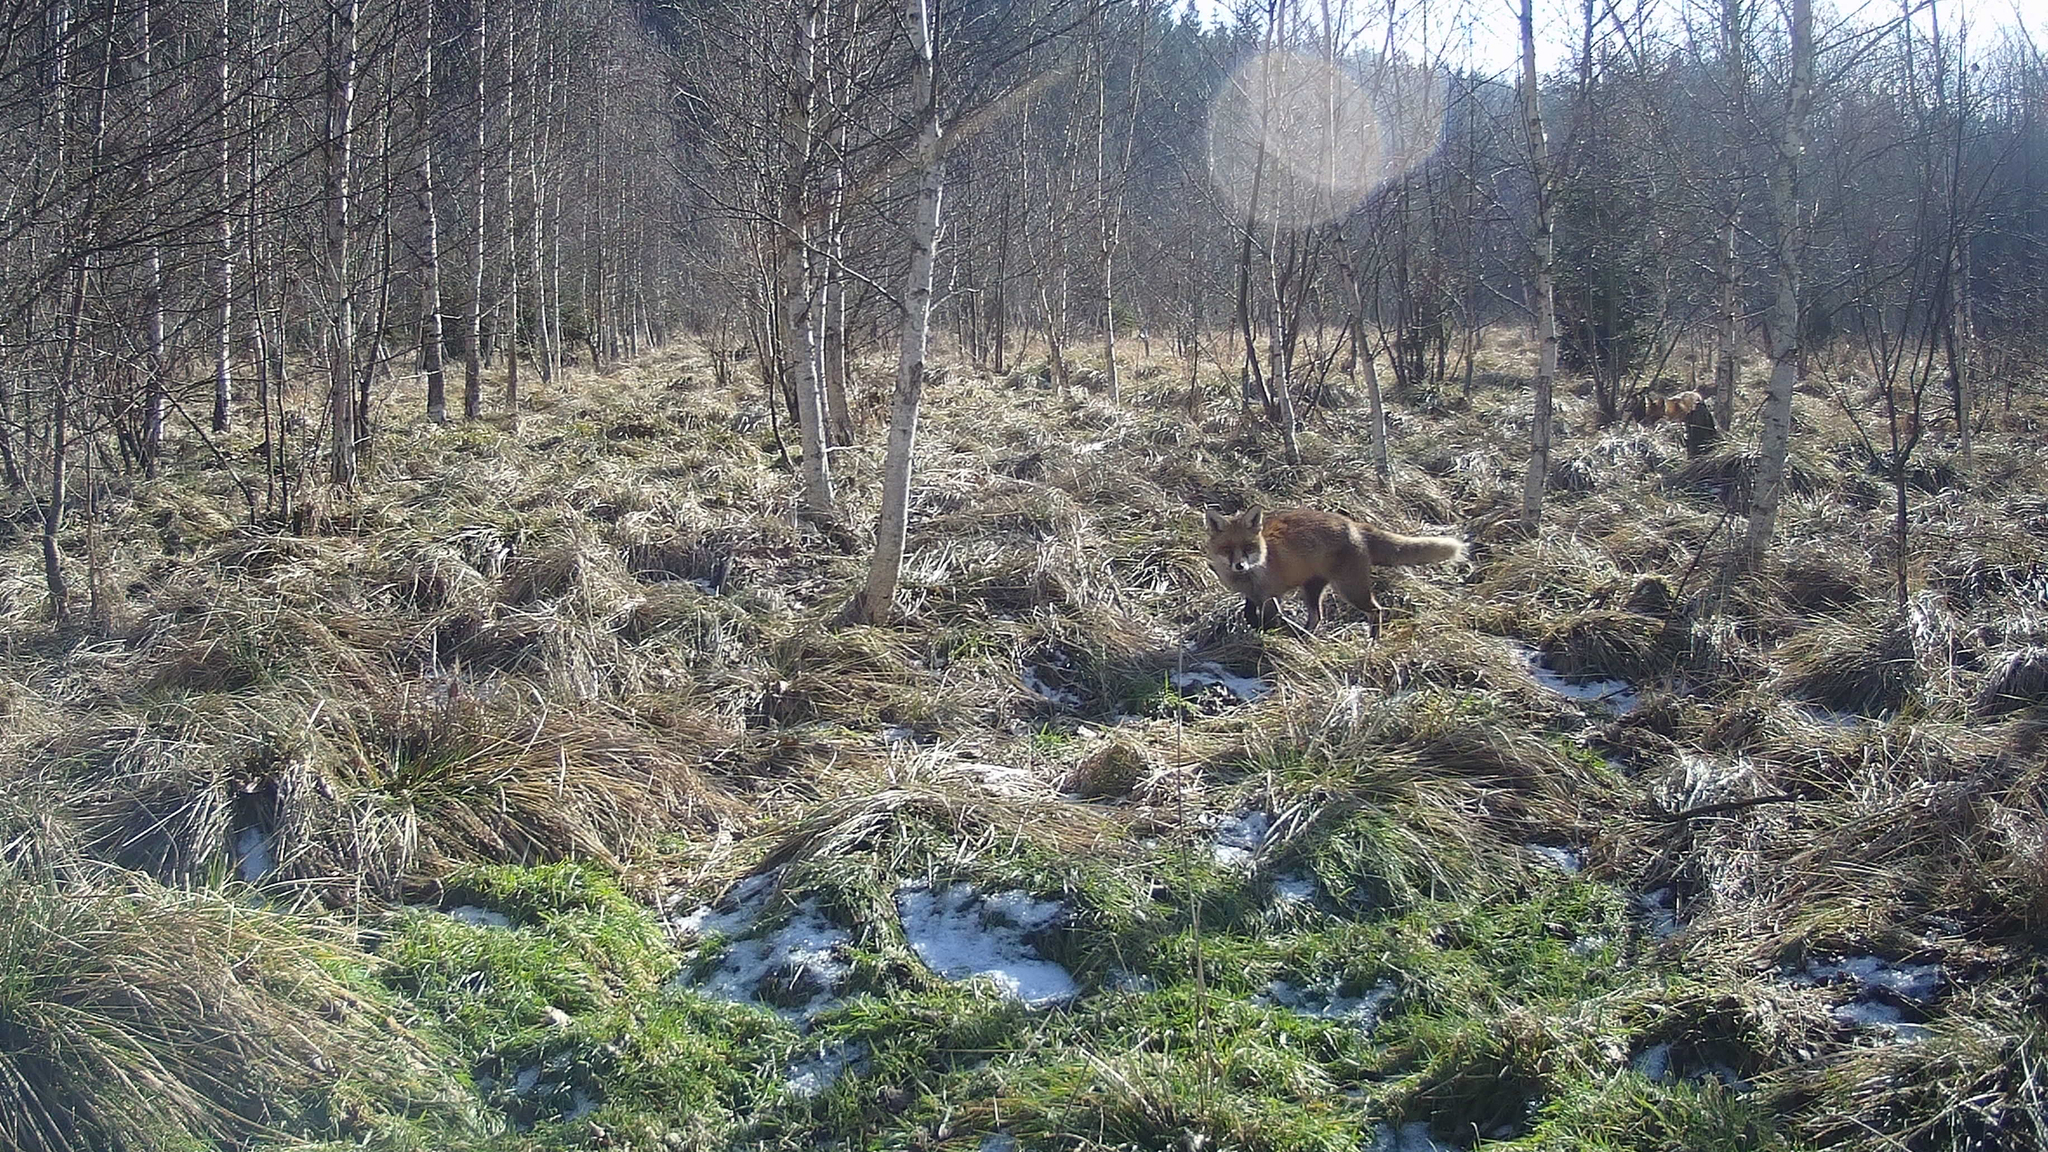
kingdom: Animalia
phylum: Chordata
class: Mammalia
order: Carnivora
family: Canidae
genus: Vulpes
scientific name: Vulpes vulpes
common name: Red fox
